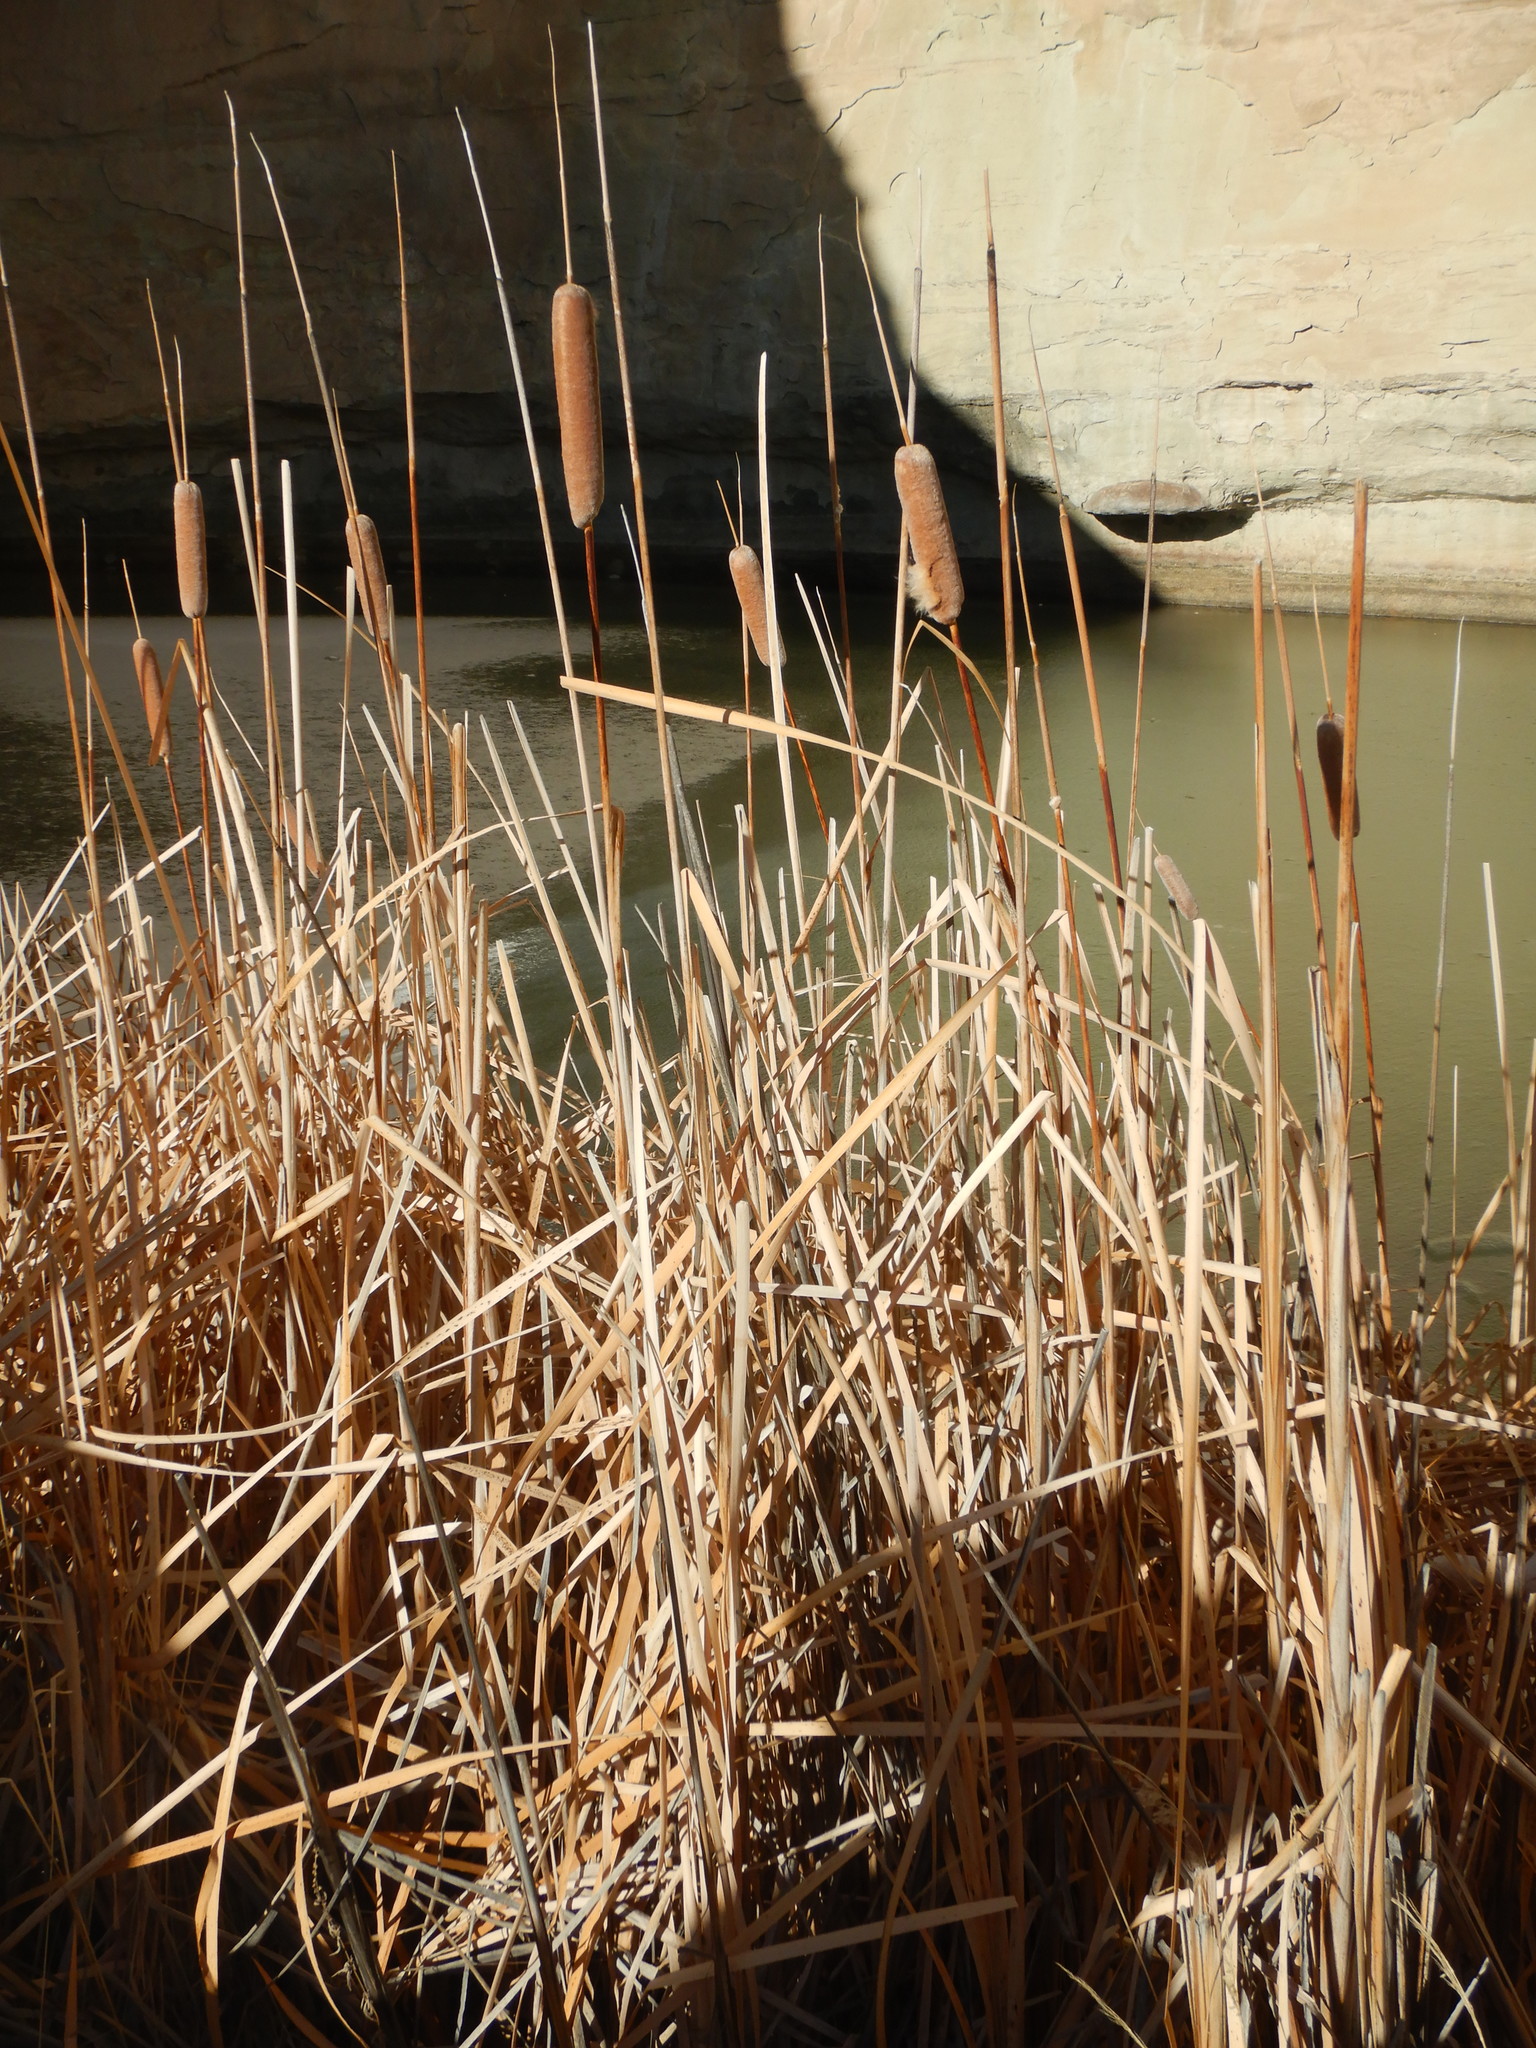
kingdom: Plantae
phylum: Tracheophyta
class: Liliopsida
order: Poales
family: Typhaceae
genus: Typha
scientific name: Typha glauca
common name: Blue cattail
